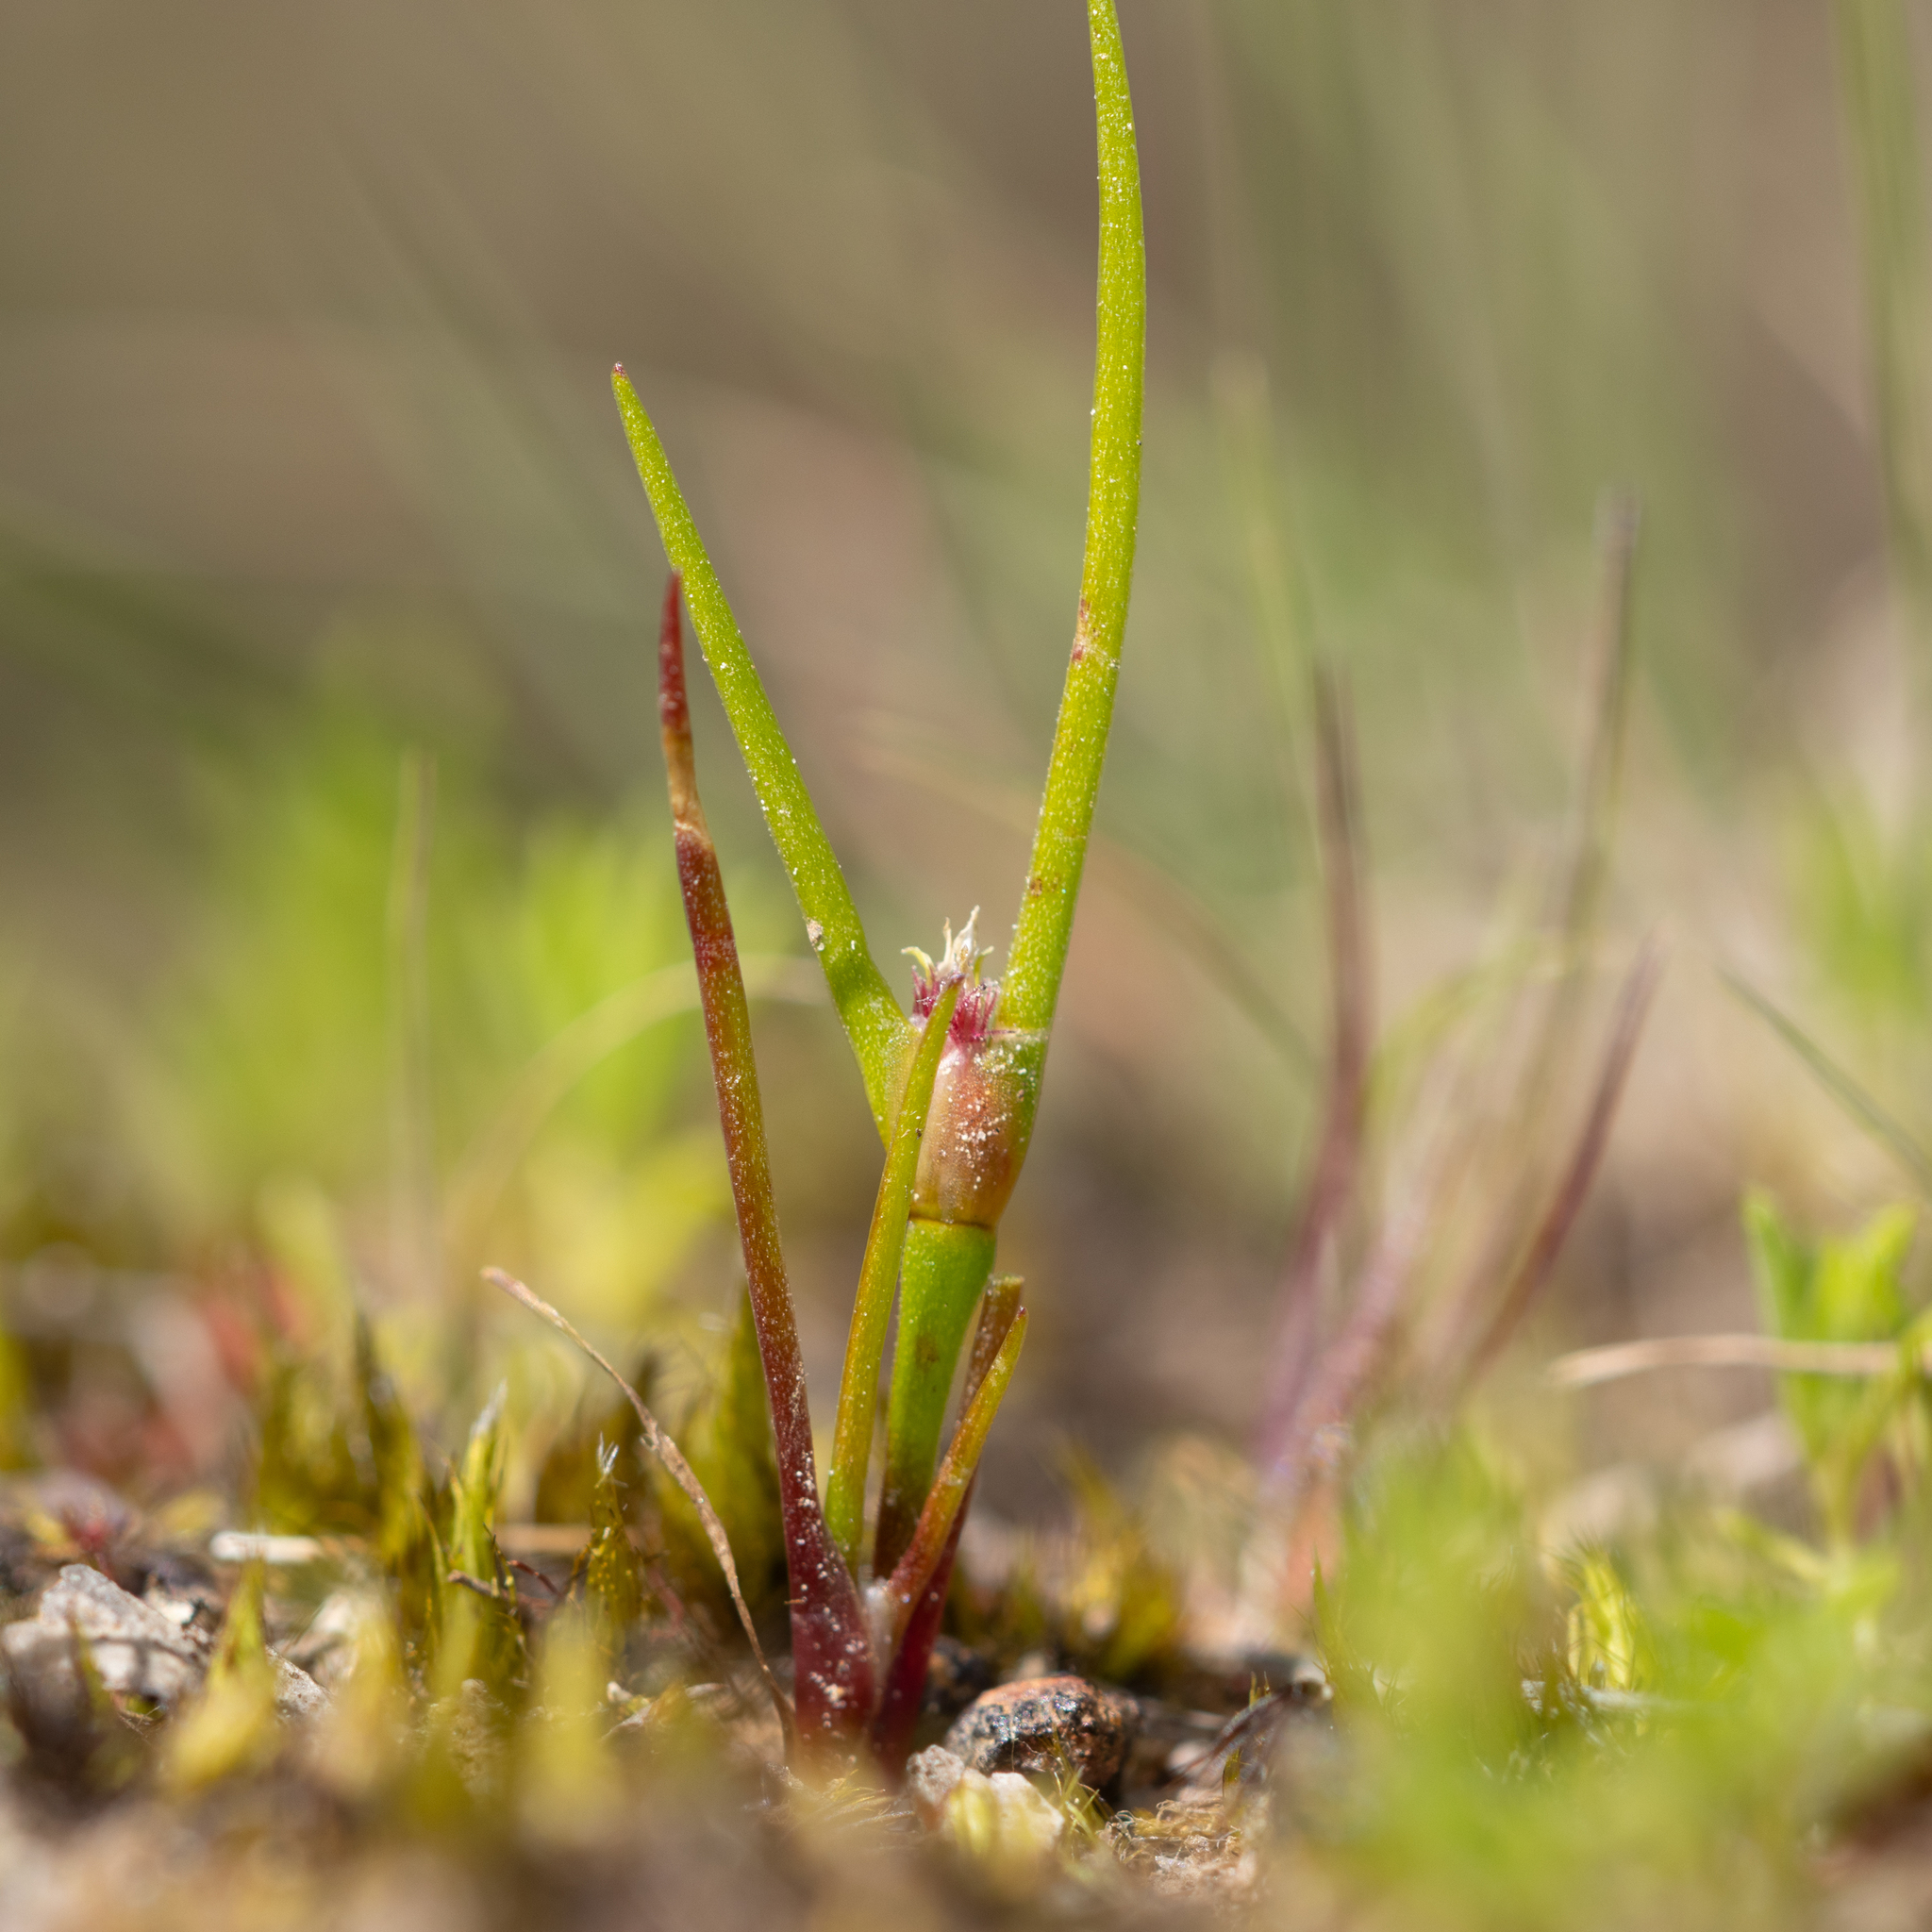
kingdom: Plantae
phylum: Tracheophyta
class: Liliopsida
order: Poales
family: Restionaceae
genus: Centrolepis
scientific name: Centrolepis aristata
